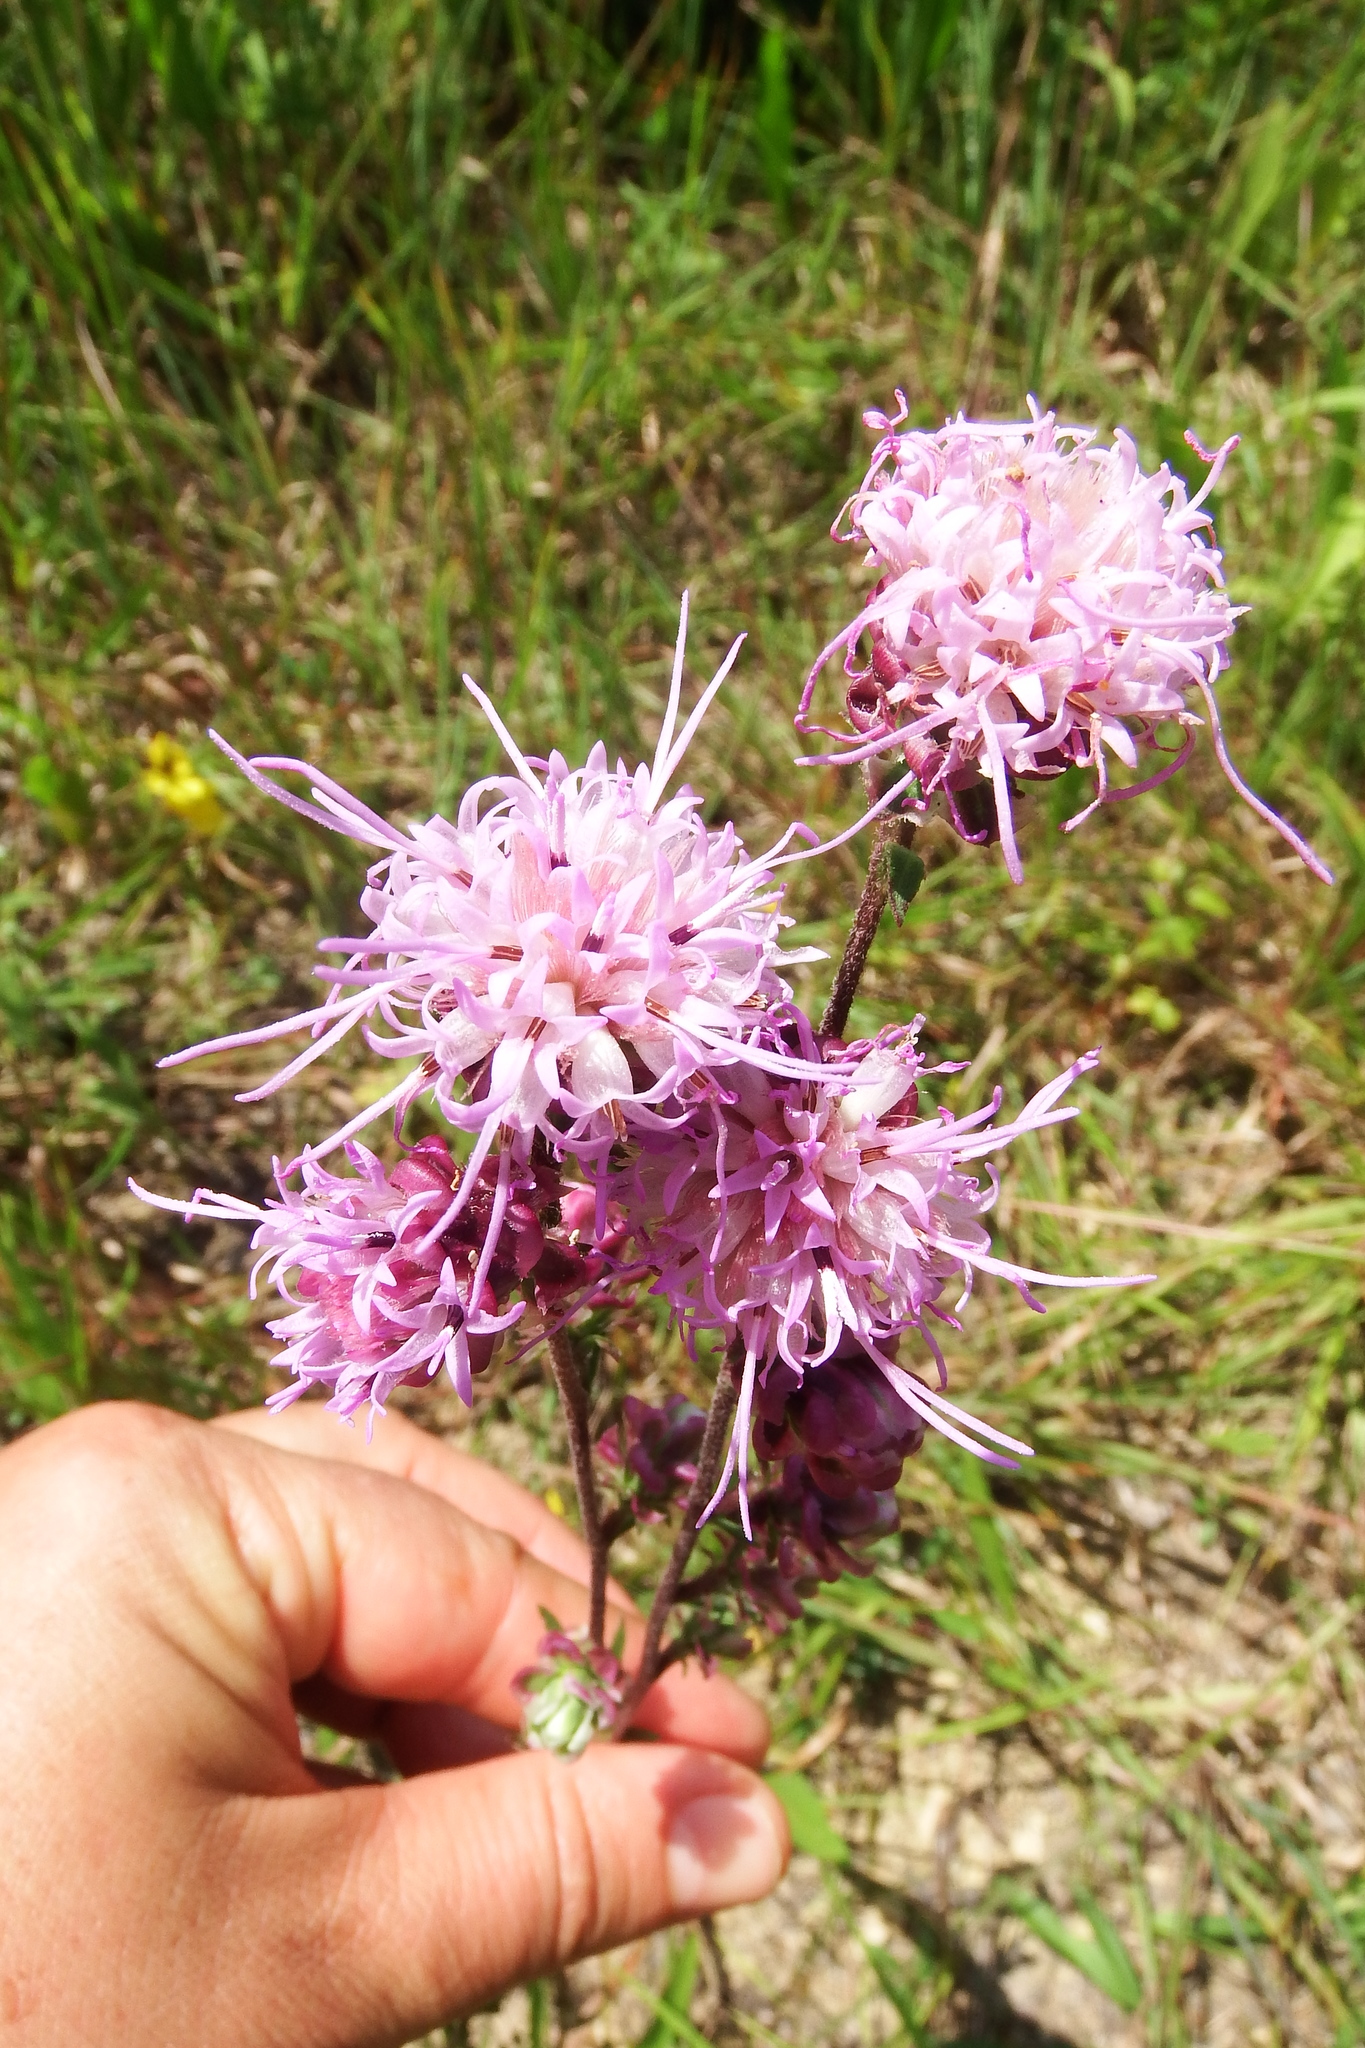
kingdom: Plantae
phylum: Tracheophyta
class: Magnoliopsida
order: Asterales
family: Asteraceae
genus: Liatris
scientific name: Liatris aspera
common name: Lacerate blazing-star
